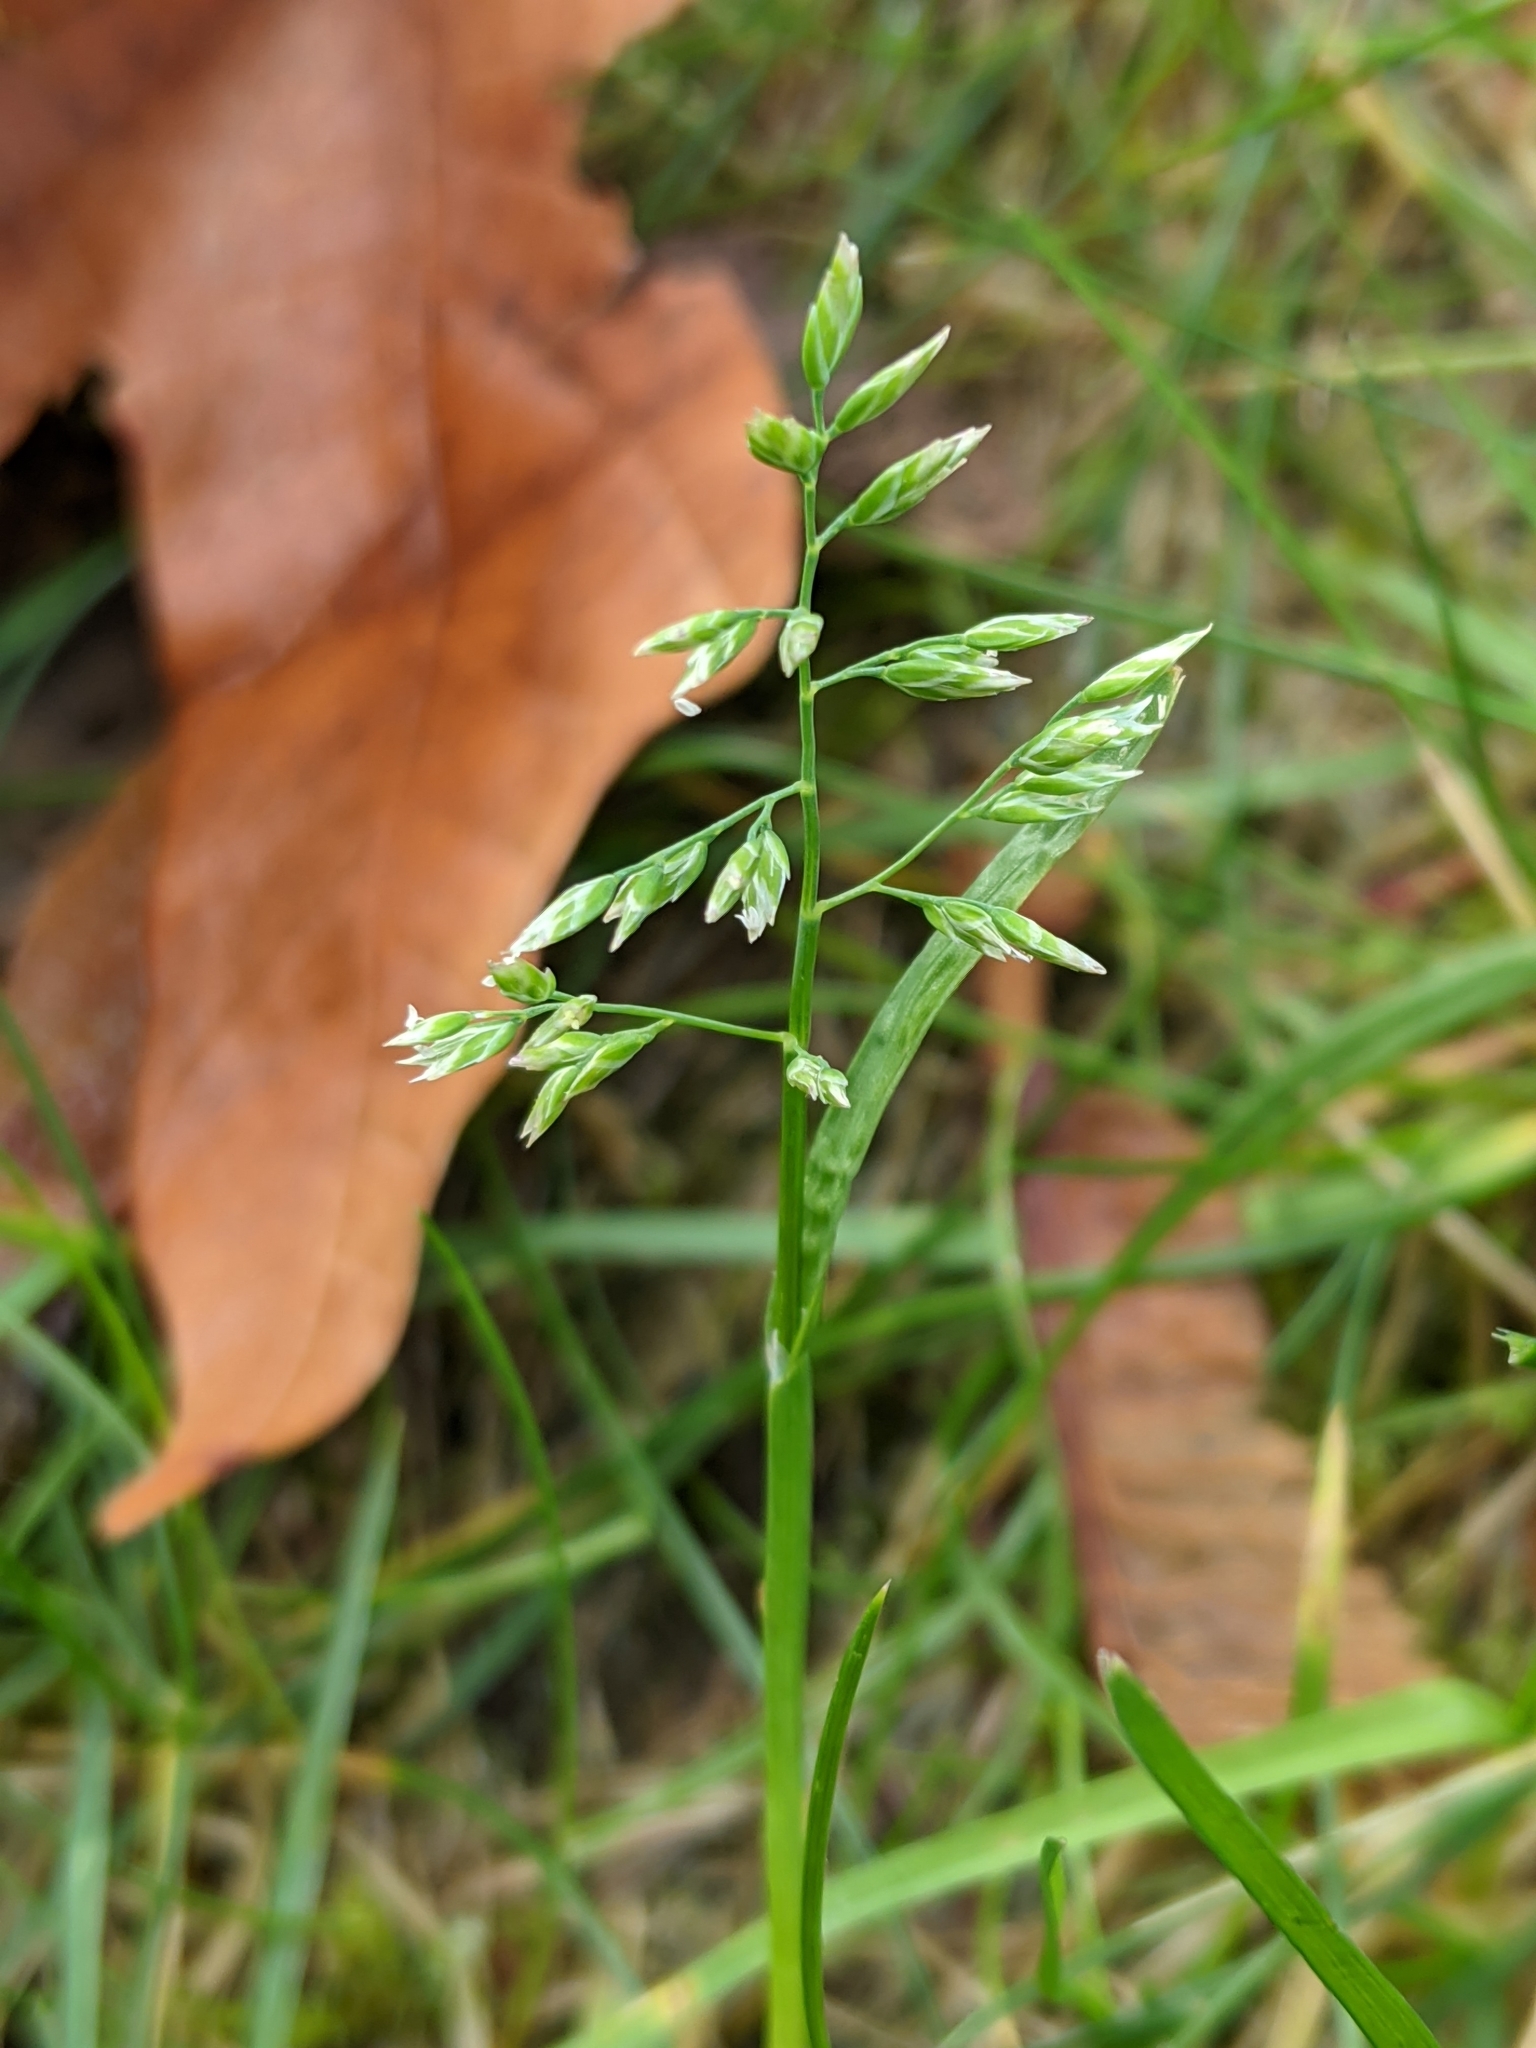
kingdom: Plantae
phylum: Tracheophyta
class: Liliopsida
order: Poales
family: Poaceae
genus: Poa
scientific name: Poa annua
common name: Annual bluegrass
